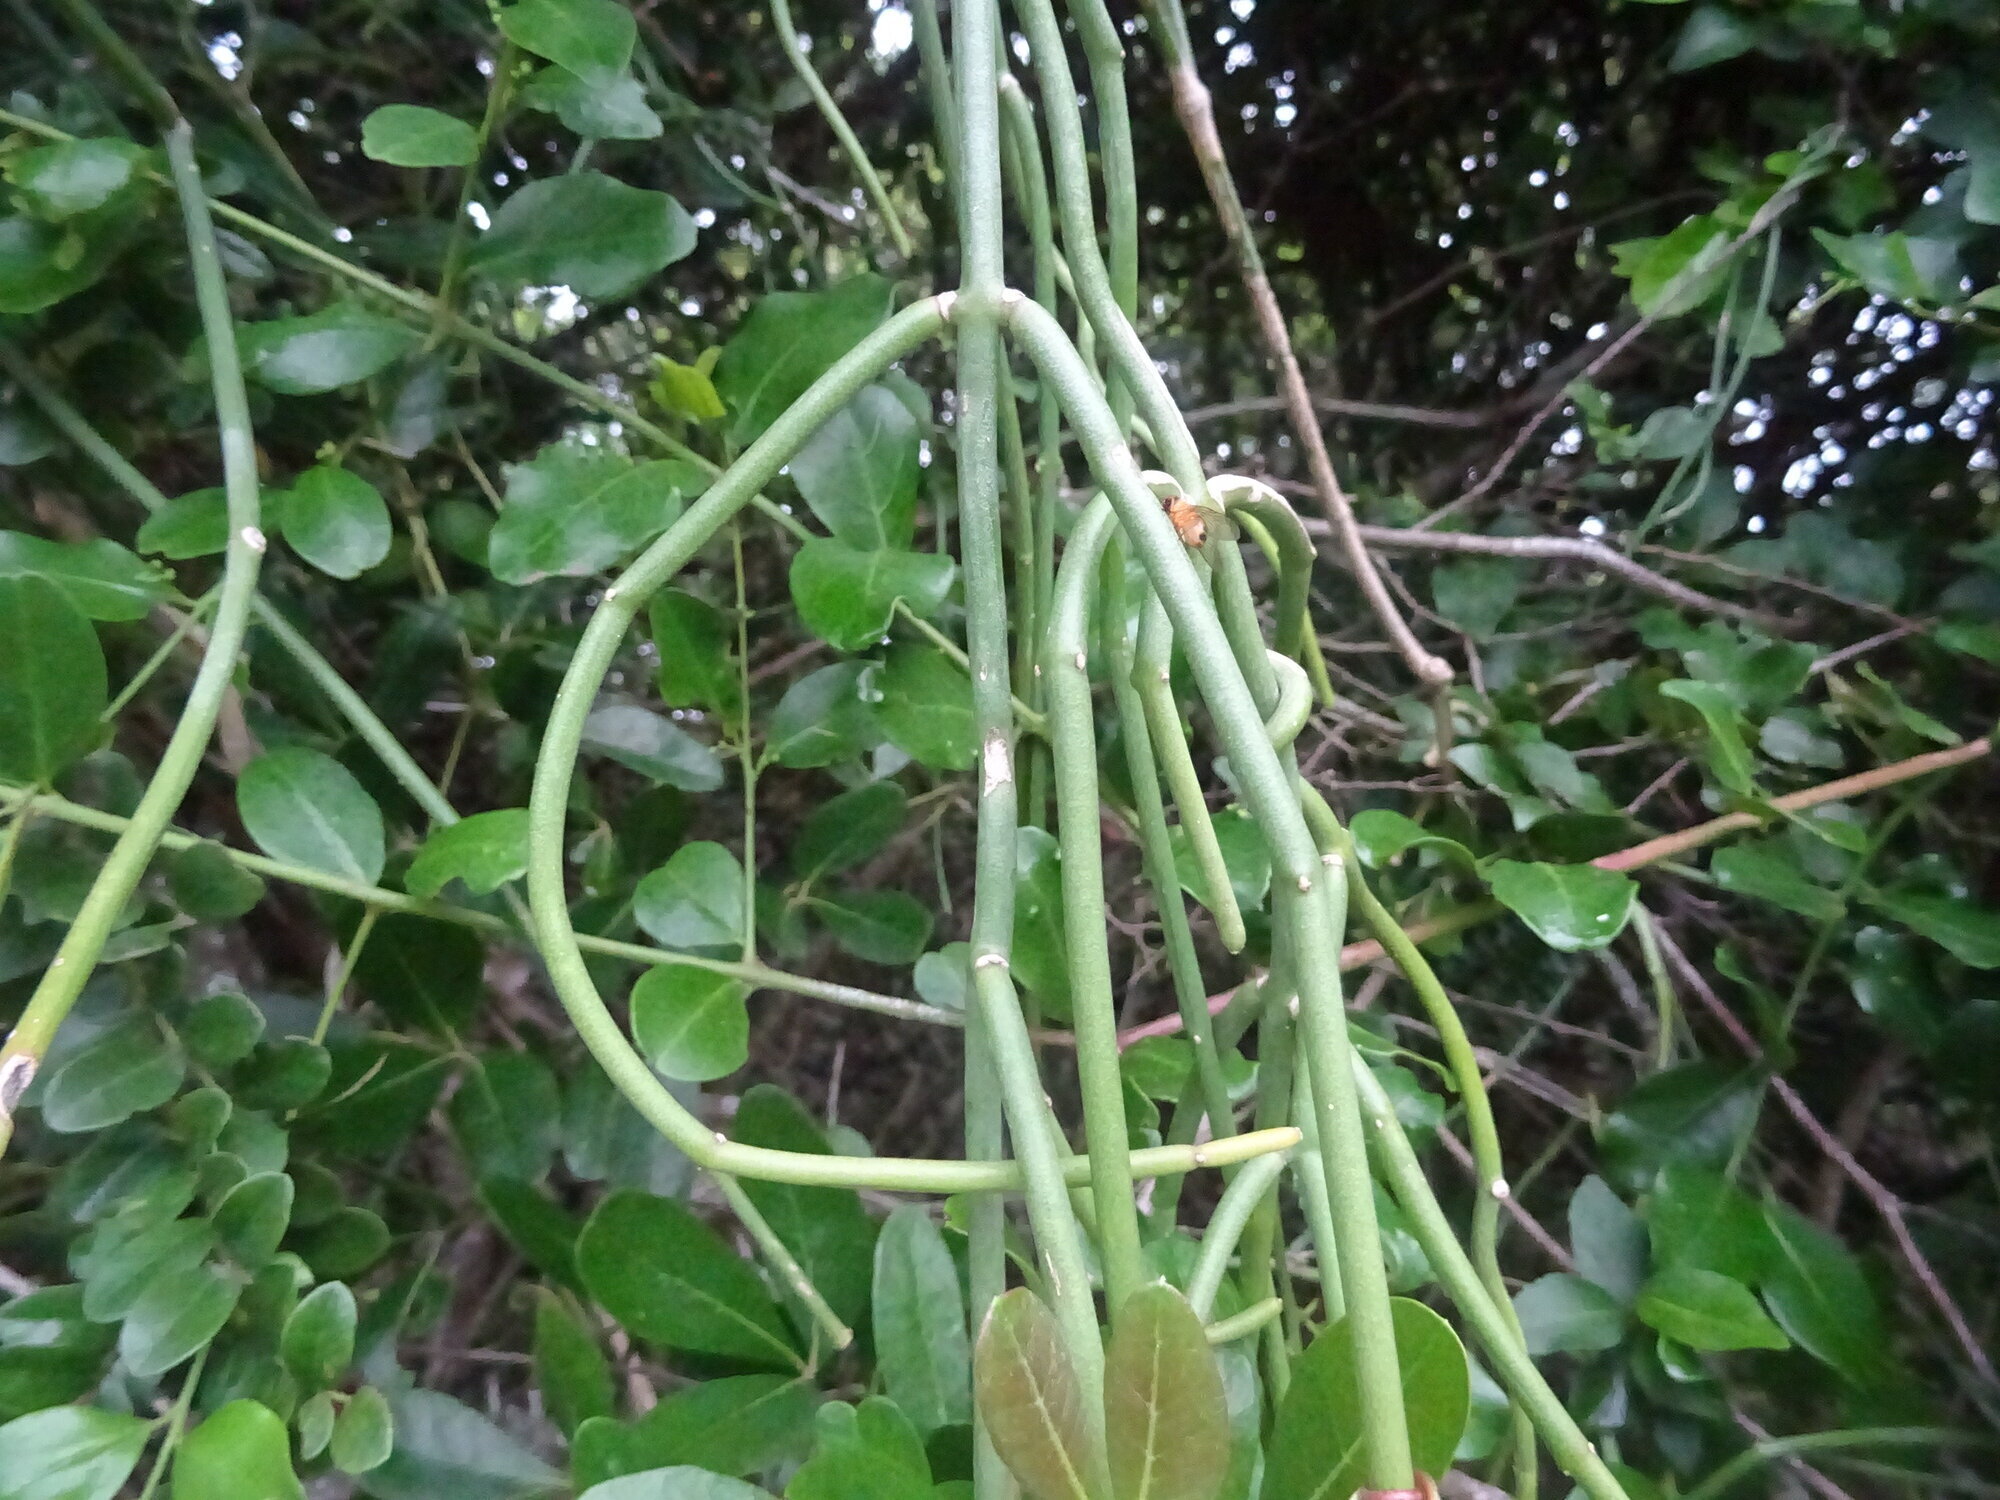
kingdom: Plantae
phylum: Tracheophyta
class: Magnoliopsida
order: Gentianales
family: Apocynaceae
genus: Cynanchum
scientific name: Cynanchum viminale
